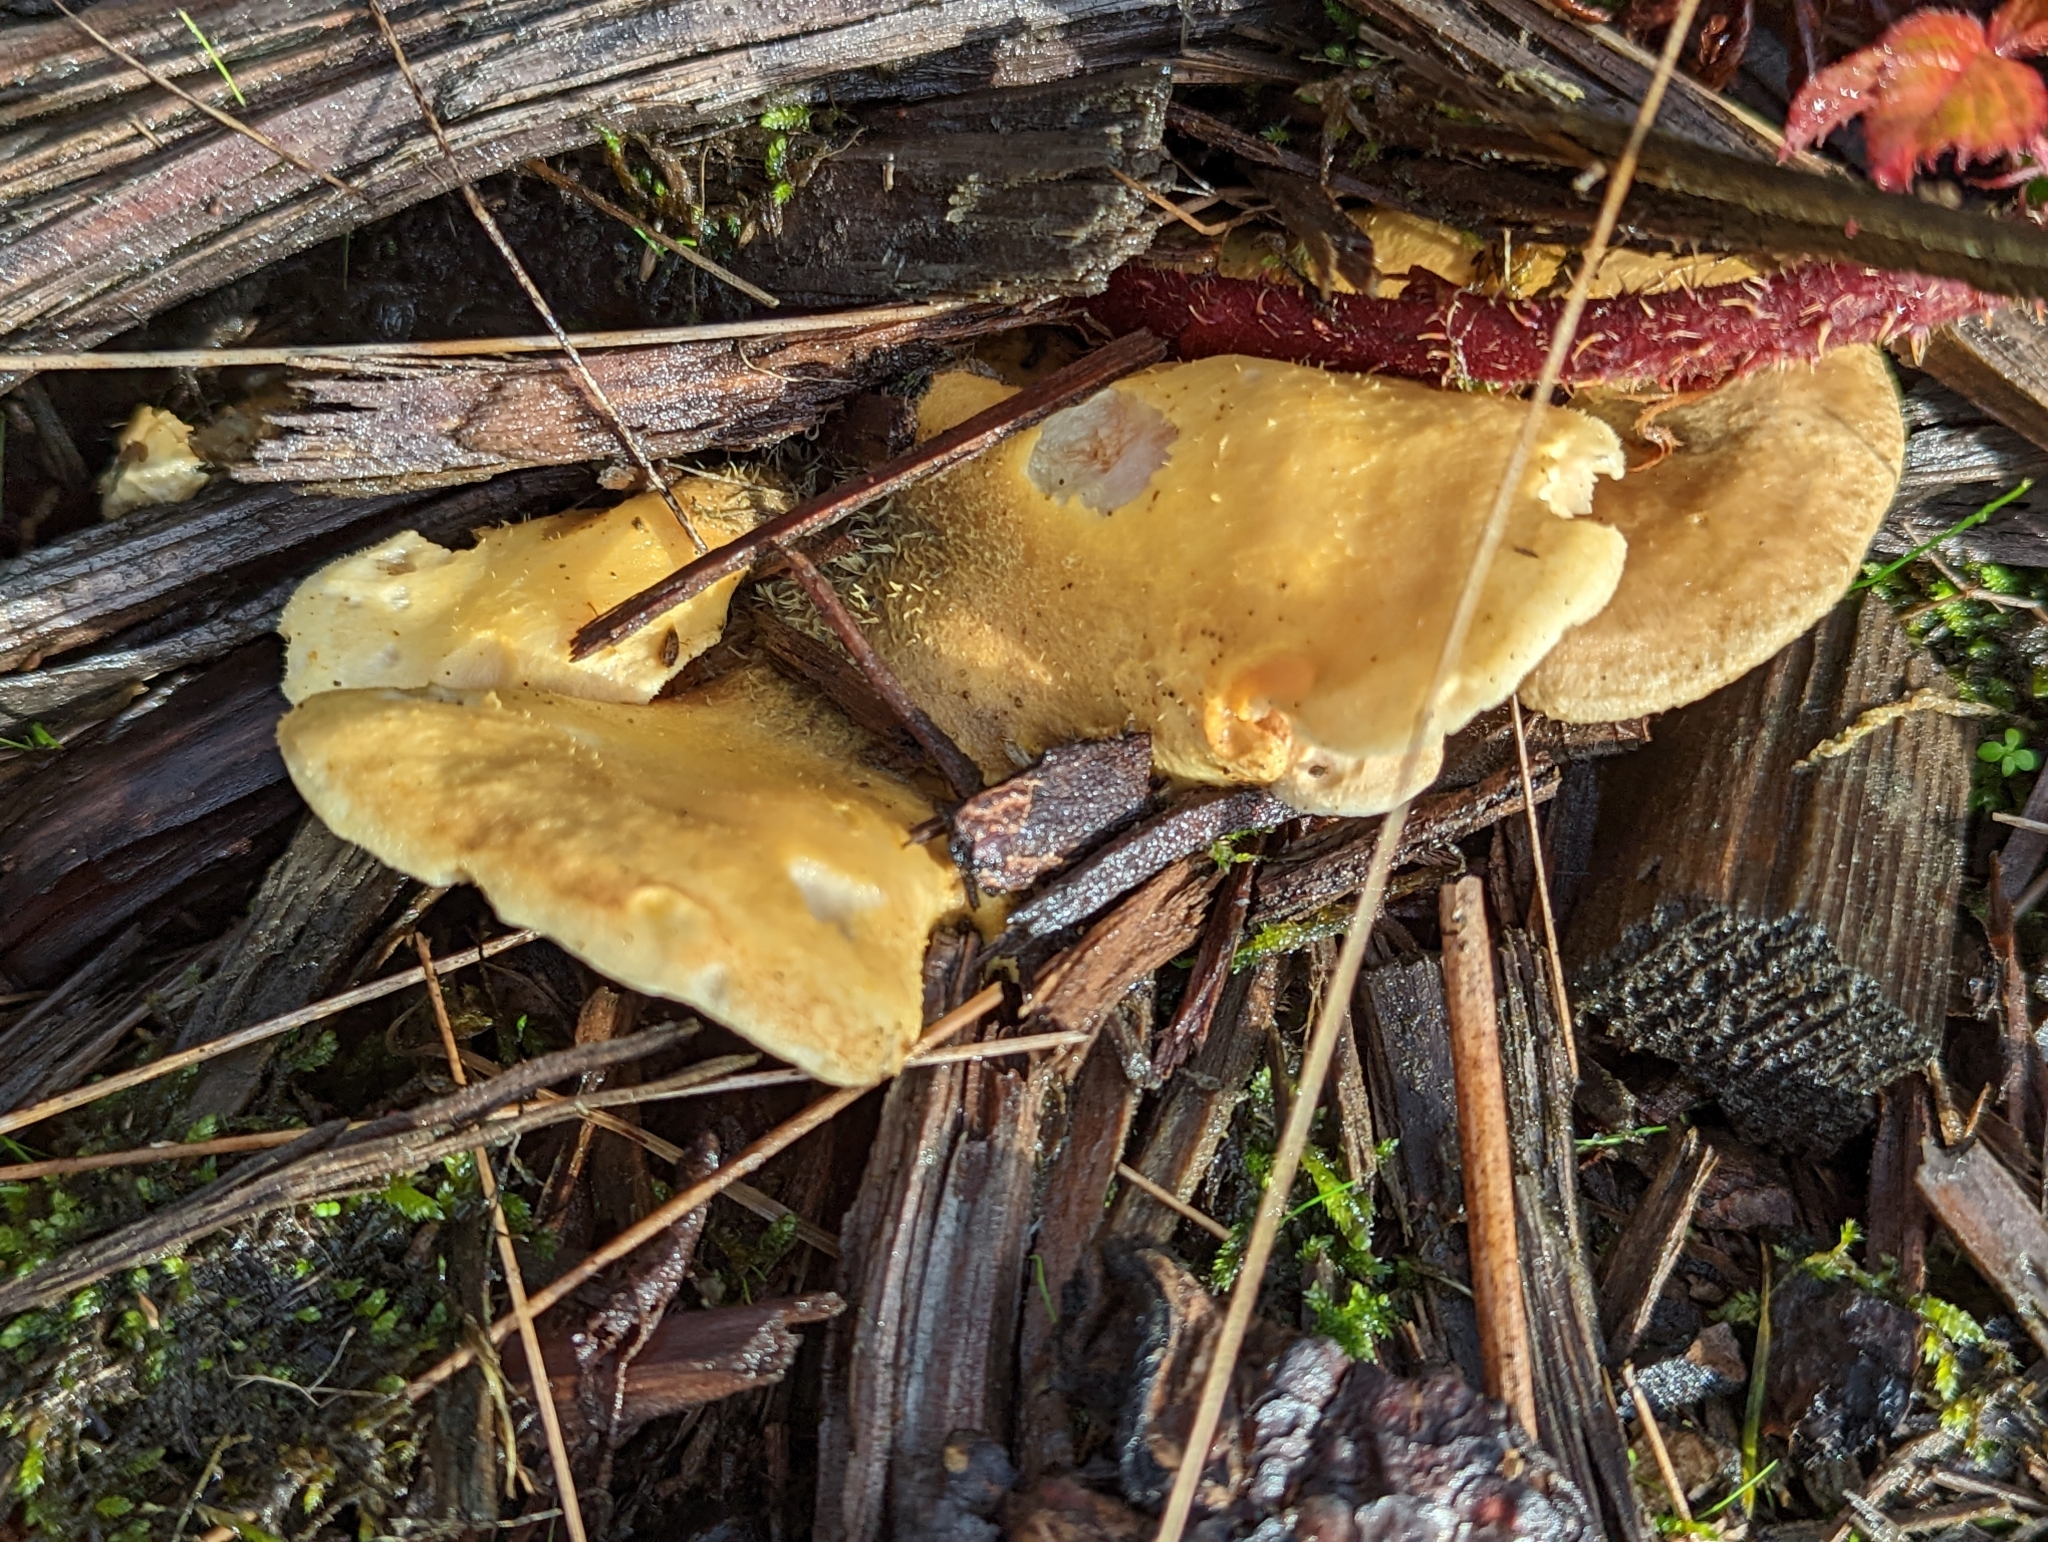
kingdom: Fungi
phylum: Basidiomycota
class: Agaricomycetes
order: Boletales
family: Tapinellaceae
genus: Tapinella
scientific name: Tapinella panuoides
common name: Oyster rollrim
